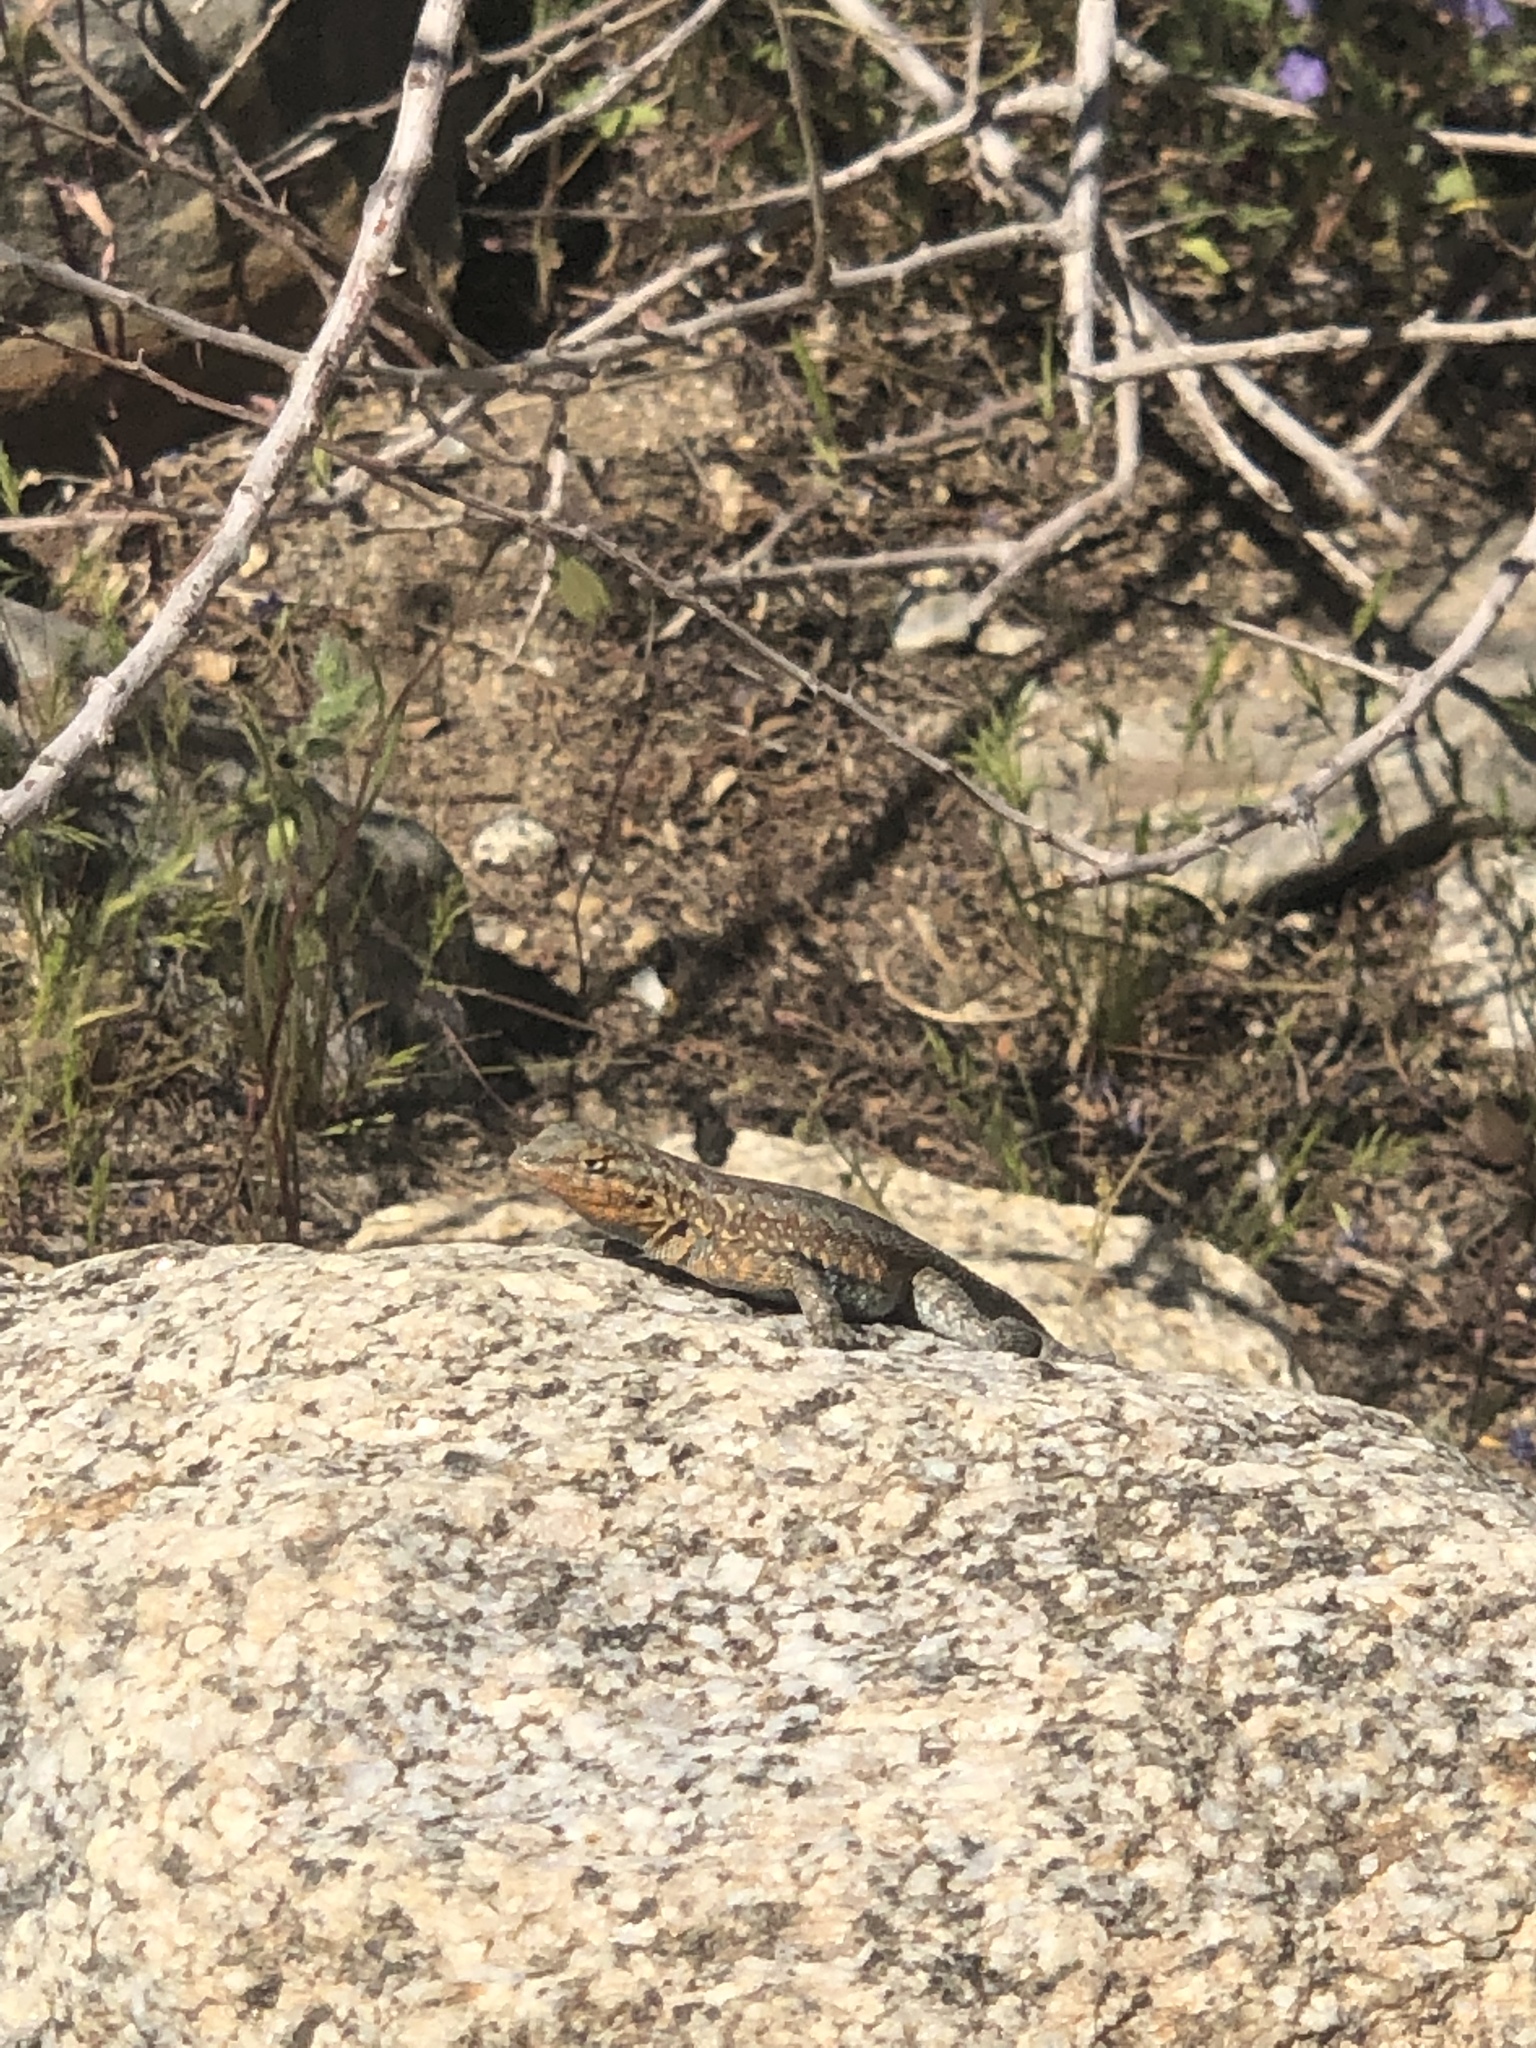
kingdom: Animalia
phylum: Chordata
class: Squamata
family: Phrynosomatidae
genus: Uta
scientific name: Uta stansburiana
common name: Side-blotched lizard
